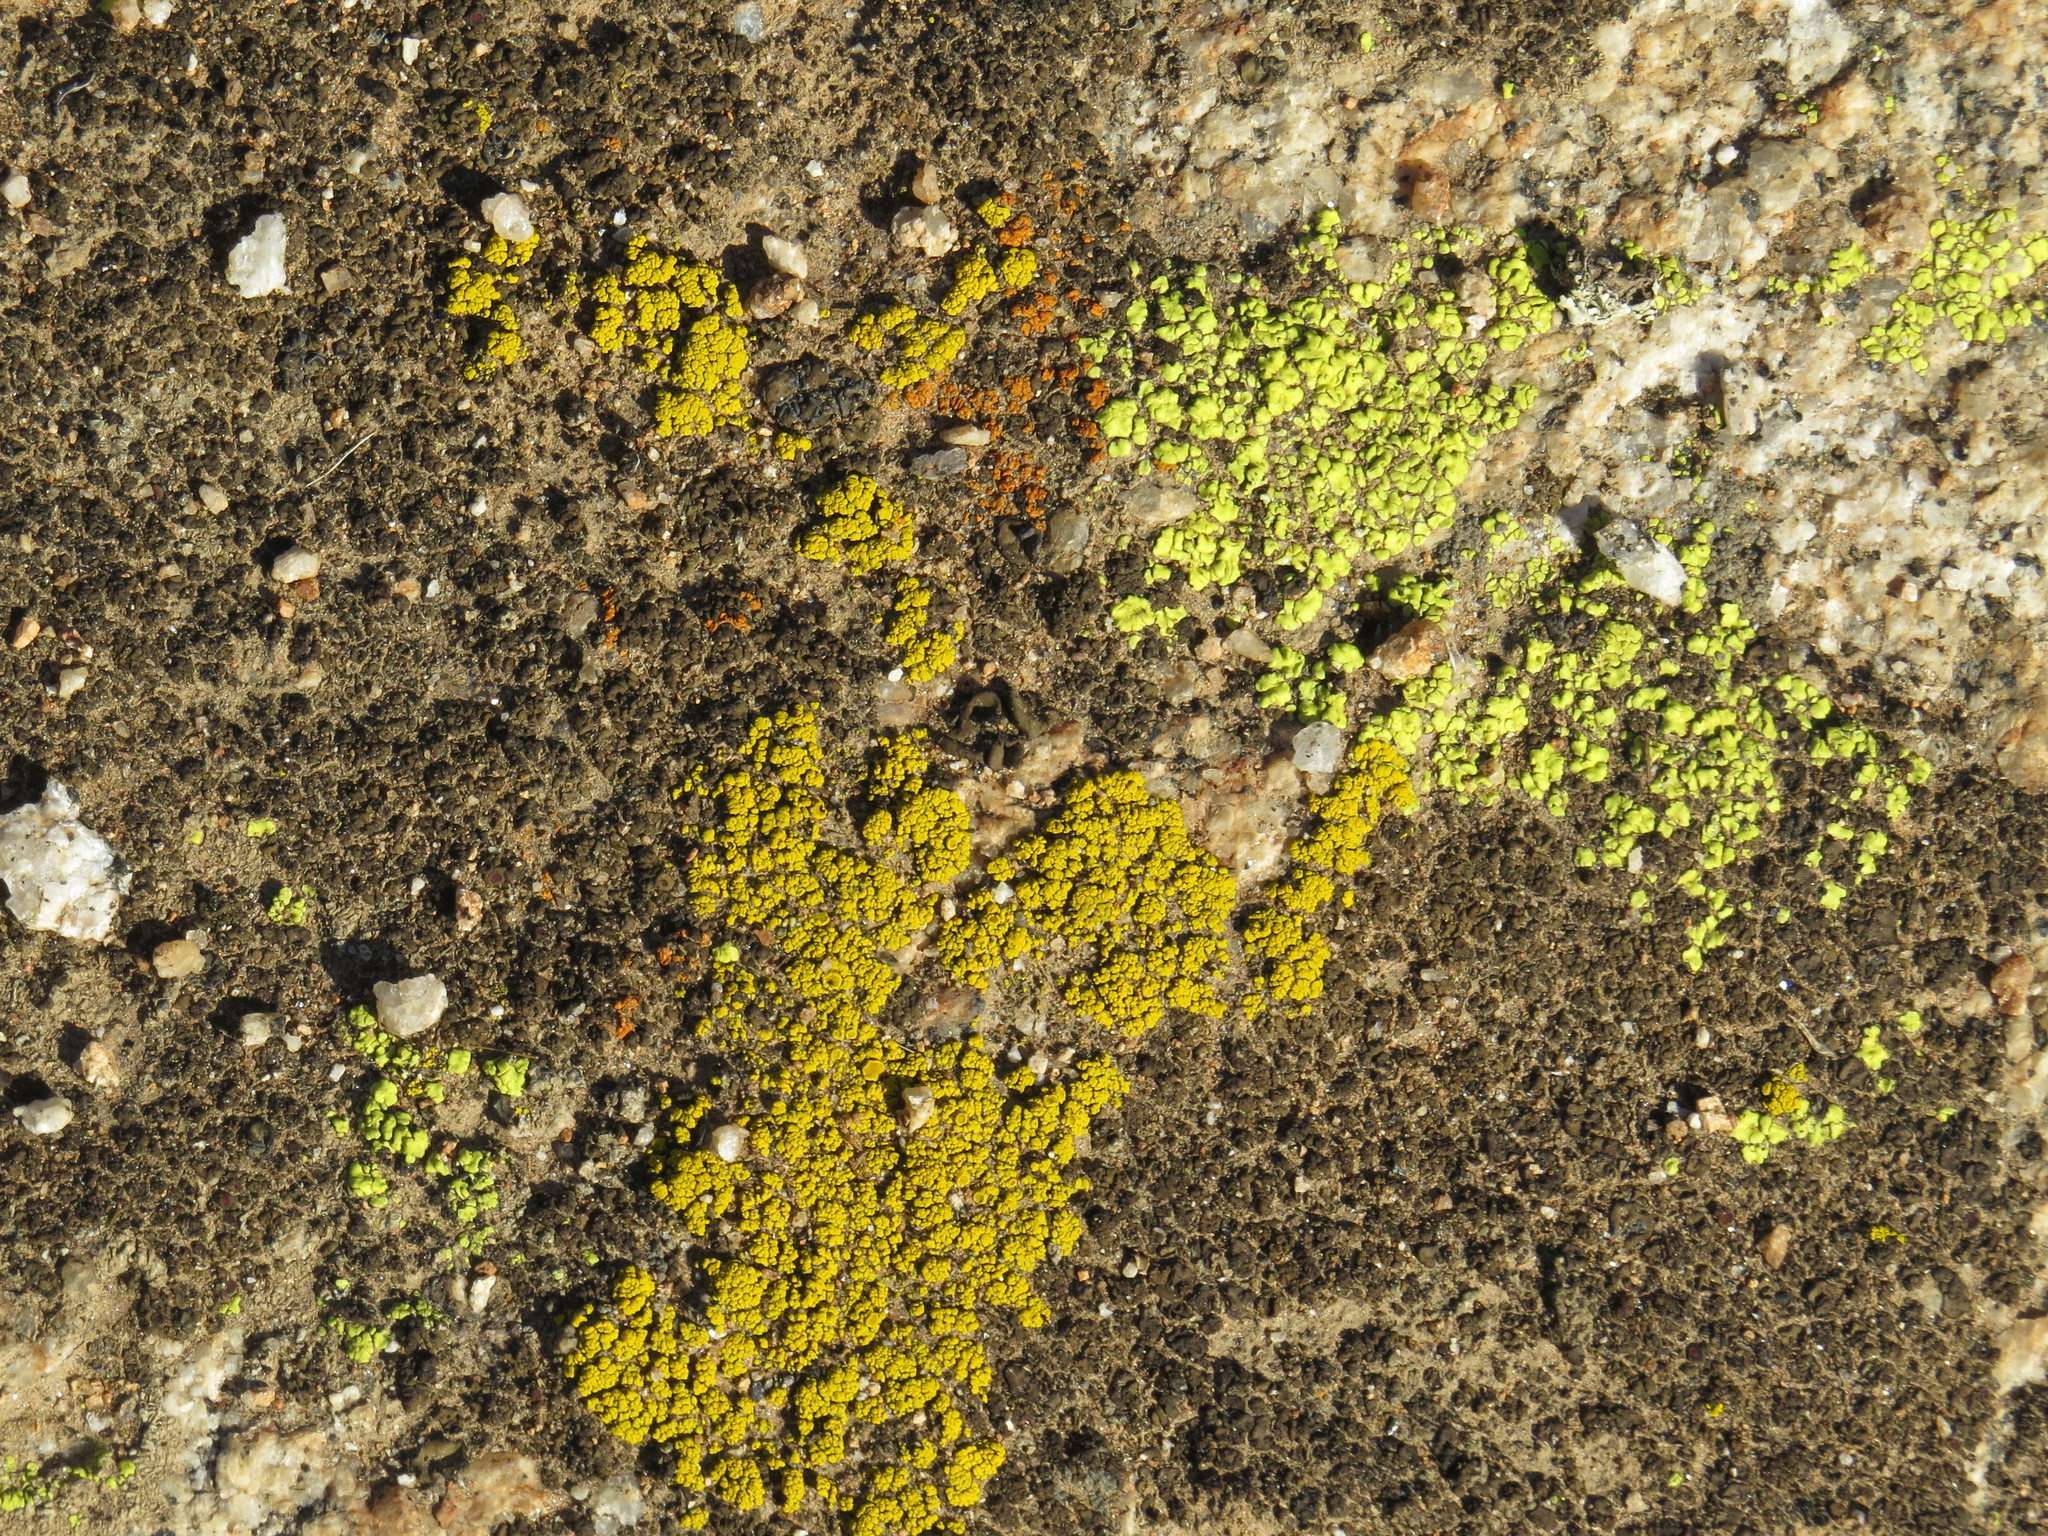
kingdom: Fungi
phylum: Ascomycota
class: Lecanoromycetes
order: Acarosporales
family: Acarosporaceae
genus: Acarospora
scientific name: Acarospora socialis
